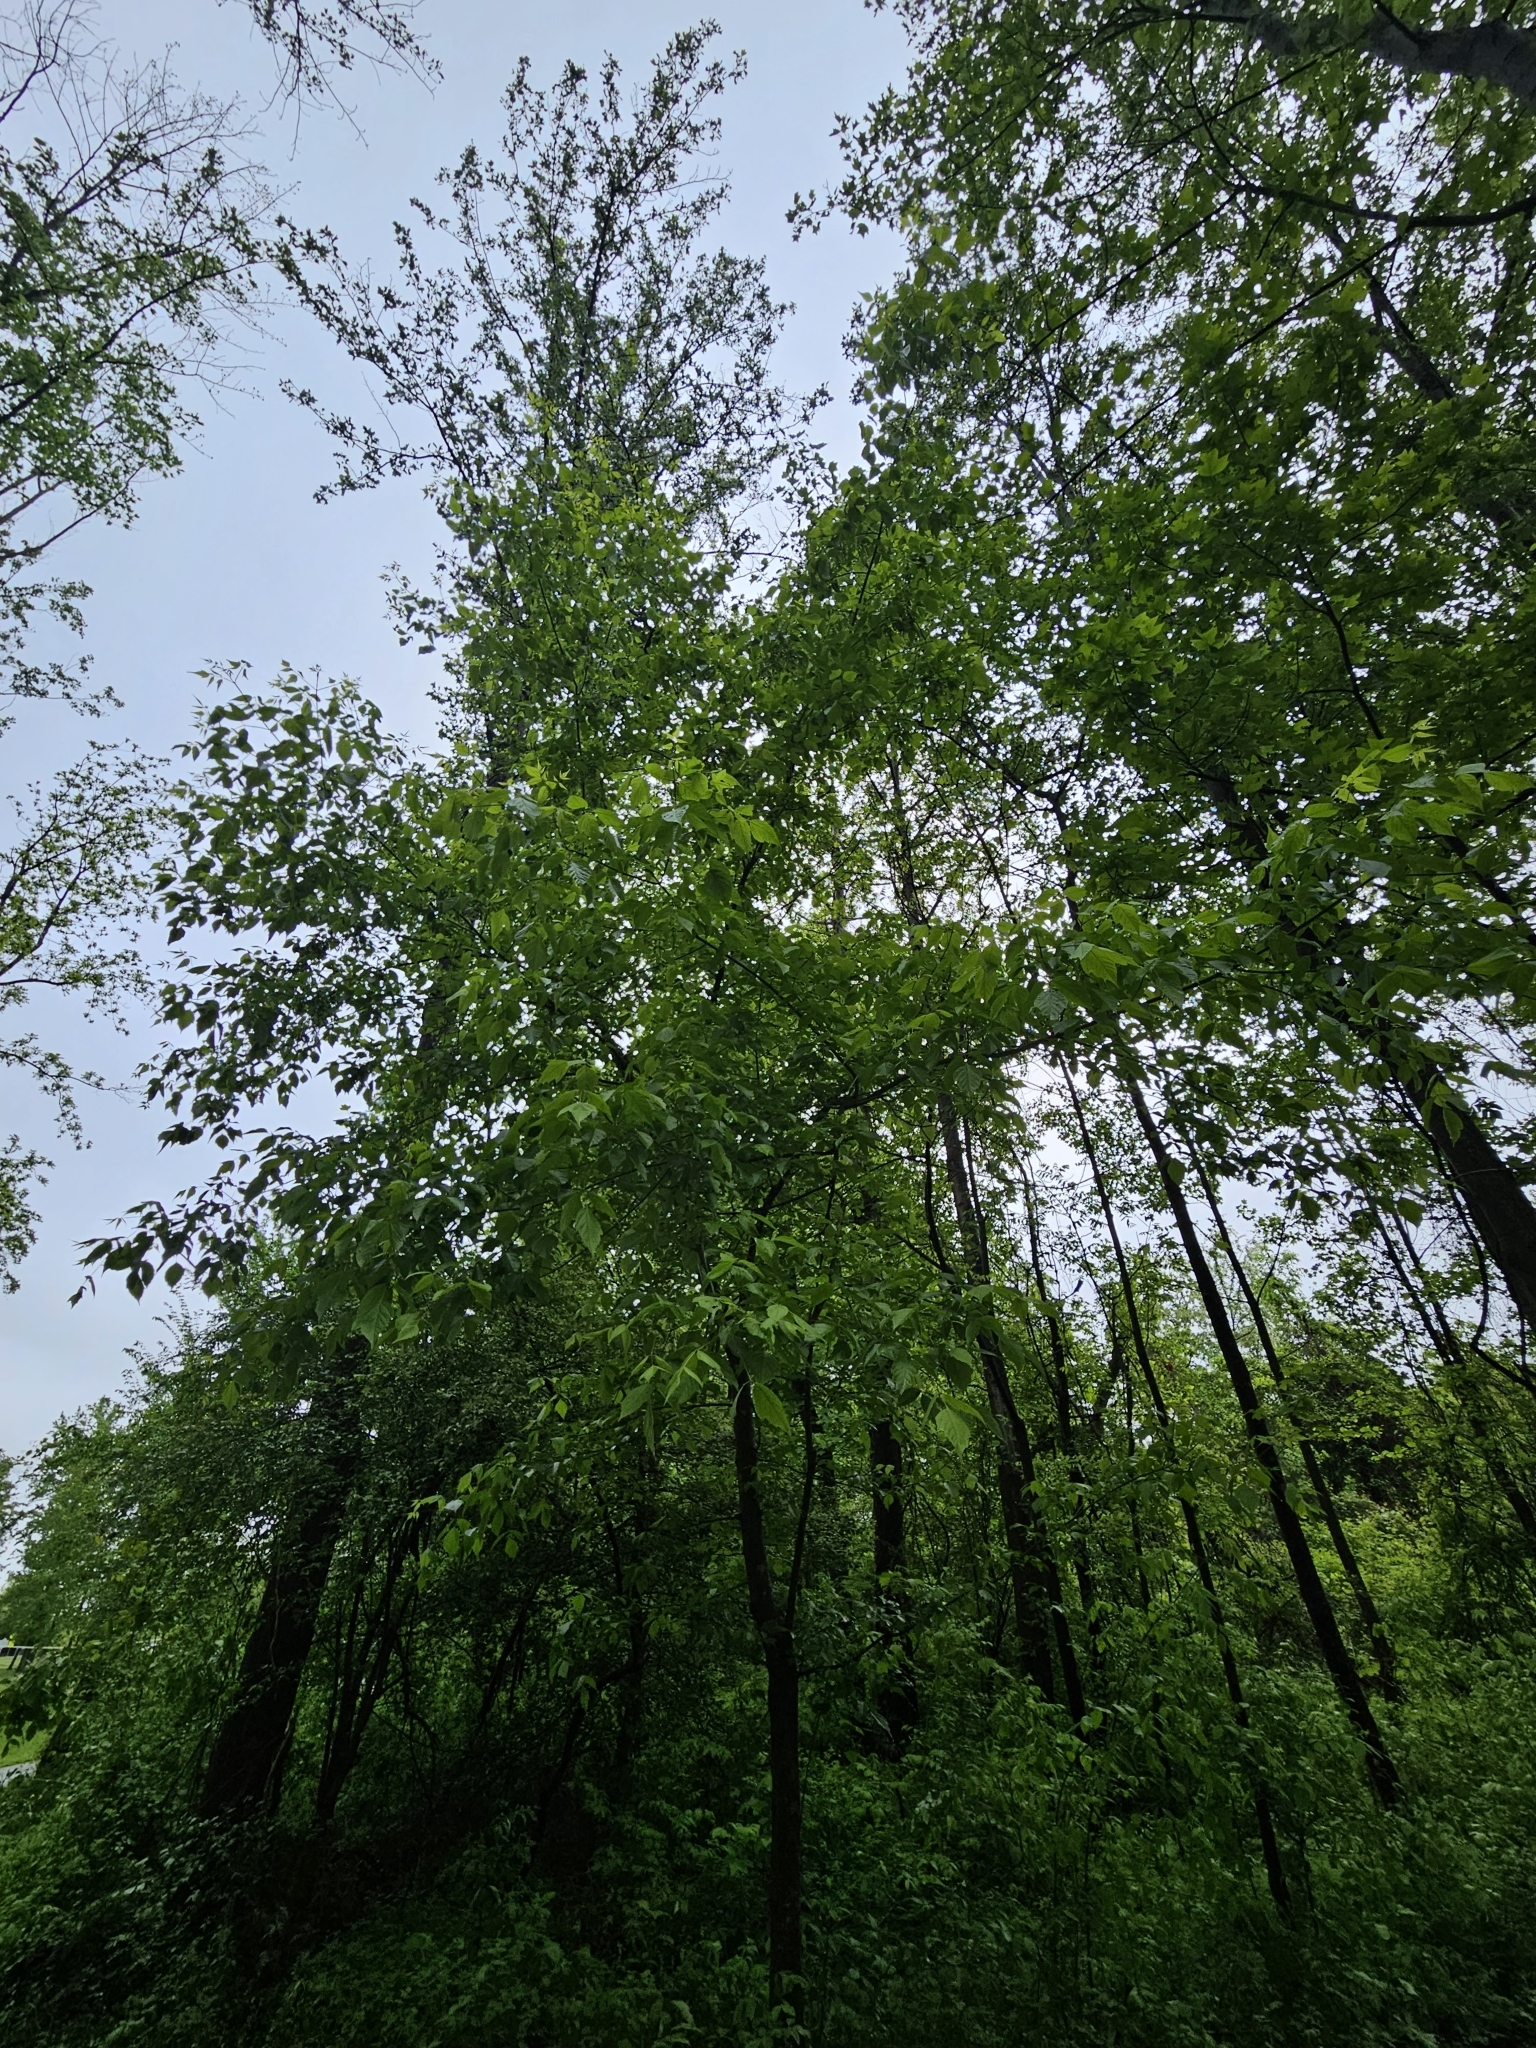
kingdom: Plantae
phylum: Tracheophyta
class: Magnoliopsida
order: Sapindales
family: Sapindaceae
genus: Acer
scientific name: Acer negundo
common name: Ashleaf maple
